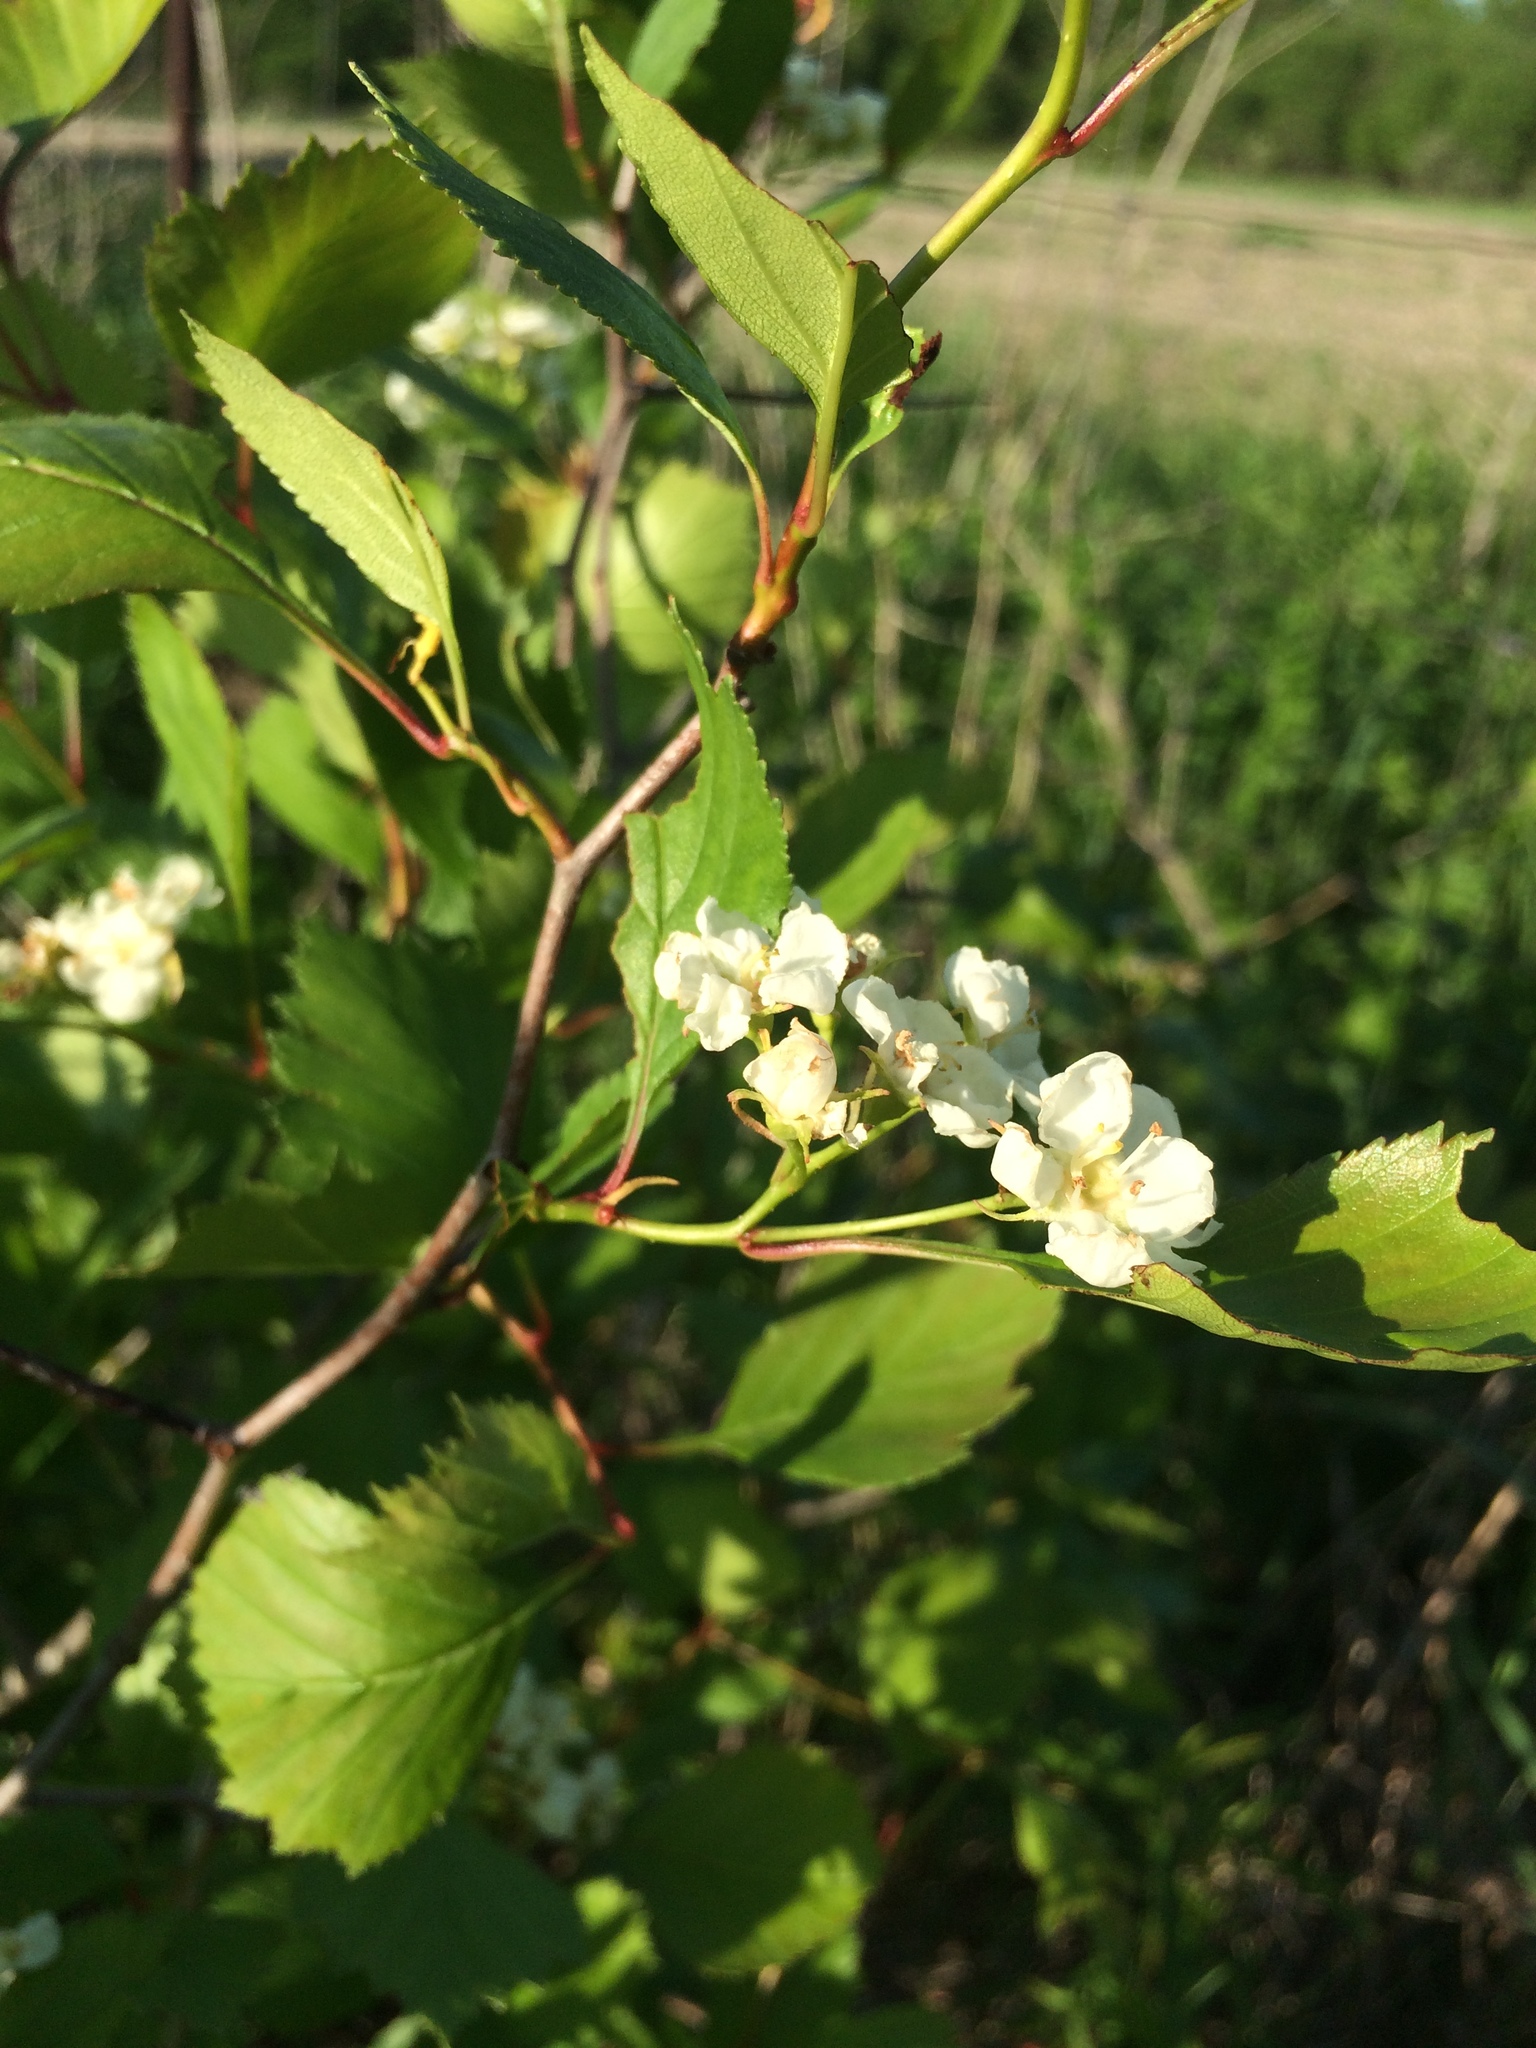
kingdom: Plantae
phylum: Tracheophyta
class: Magnoliopsida
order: Rosales
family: Rosaceae
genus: Crataegus
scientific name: Crataegus chrysocarpa
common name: Fire-berry hawthorn
